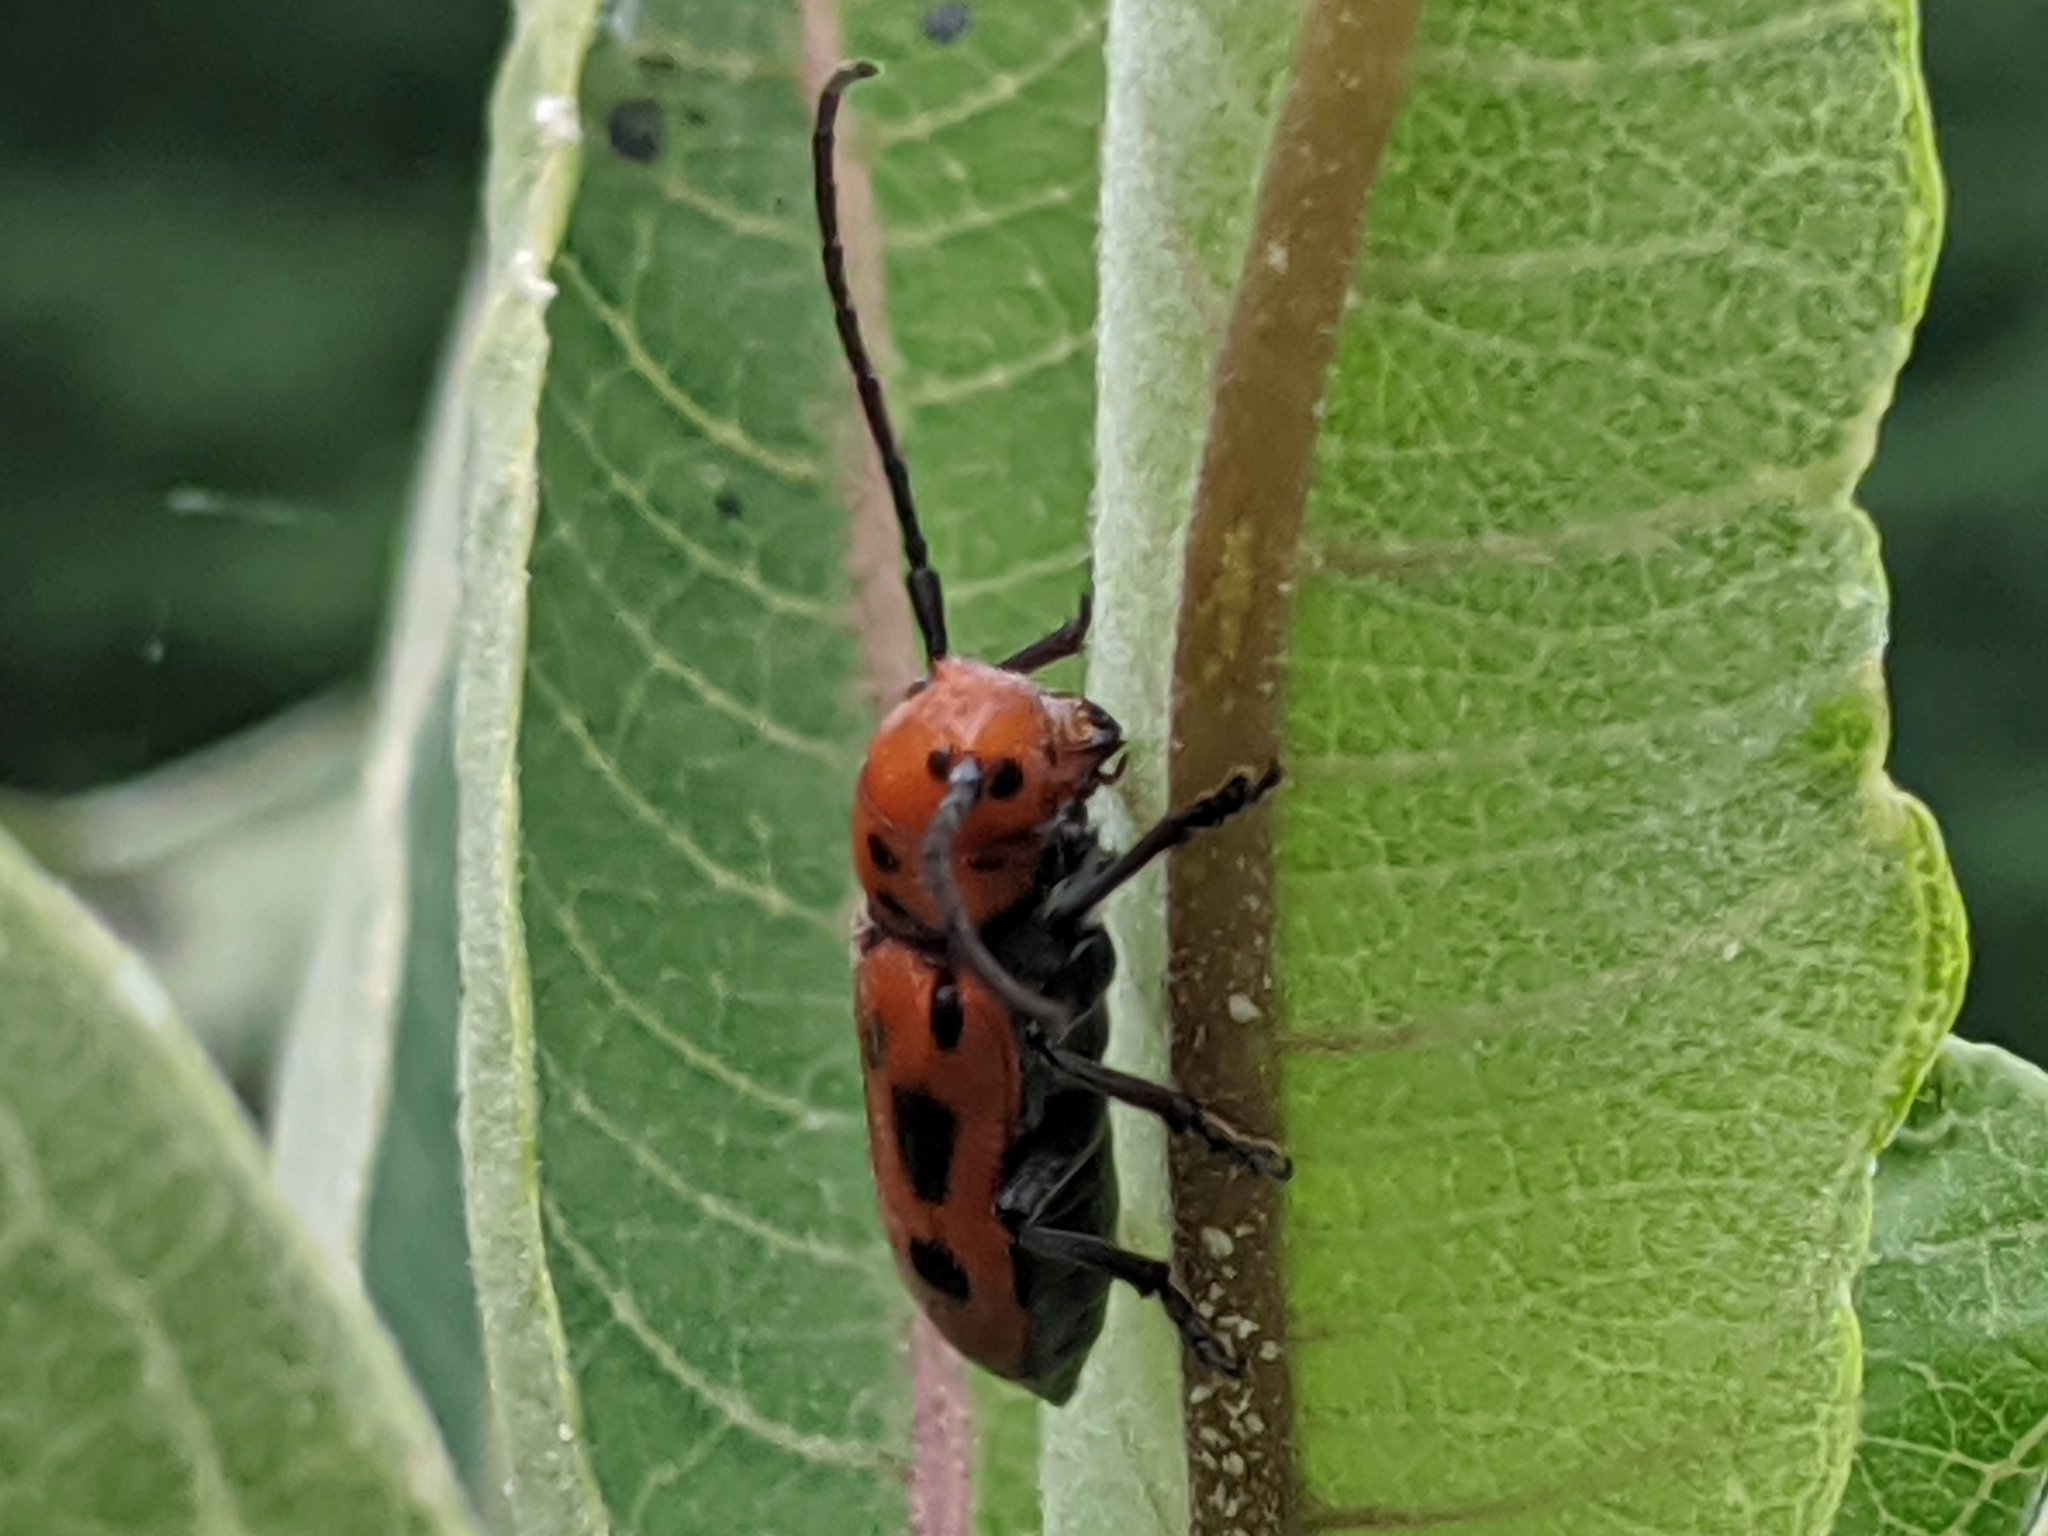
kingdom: Animalia
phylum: Arthropoda
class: Insecta
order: Coleoptera
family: Cerambycidae
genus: Tetraopes
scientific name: Tetraopes tetrophthalmus
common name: Red milkweed beetle
